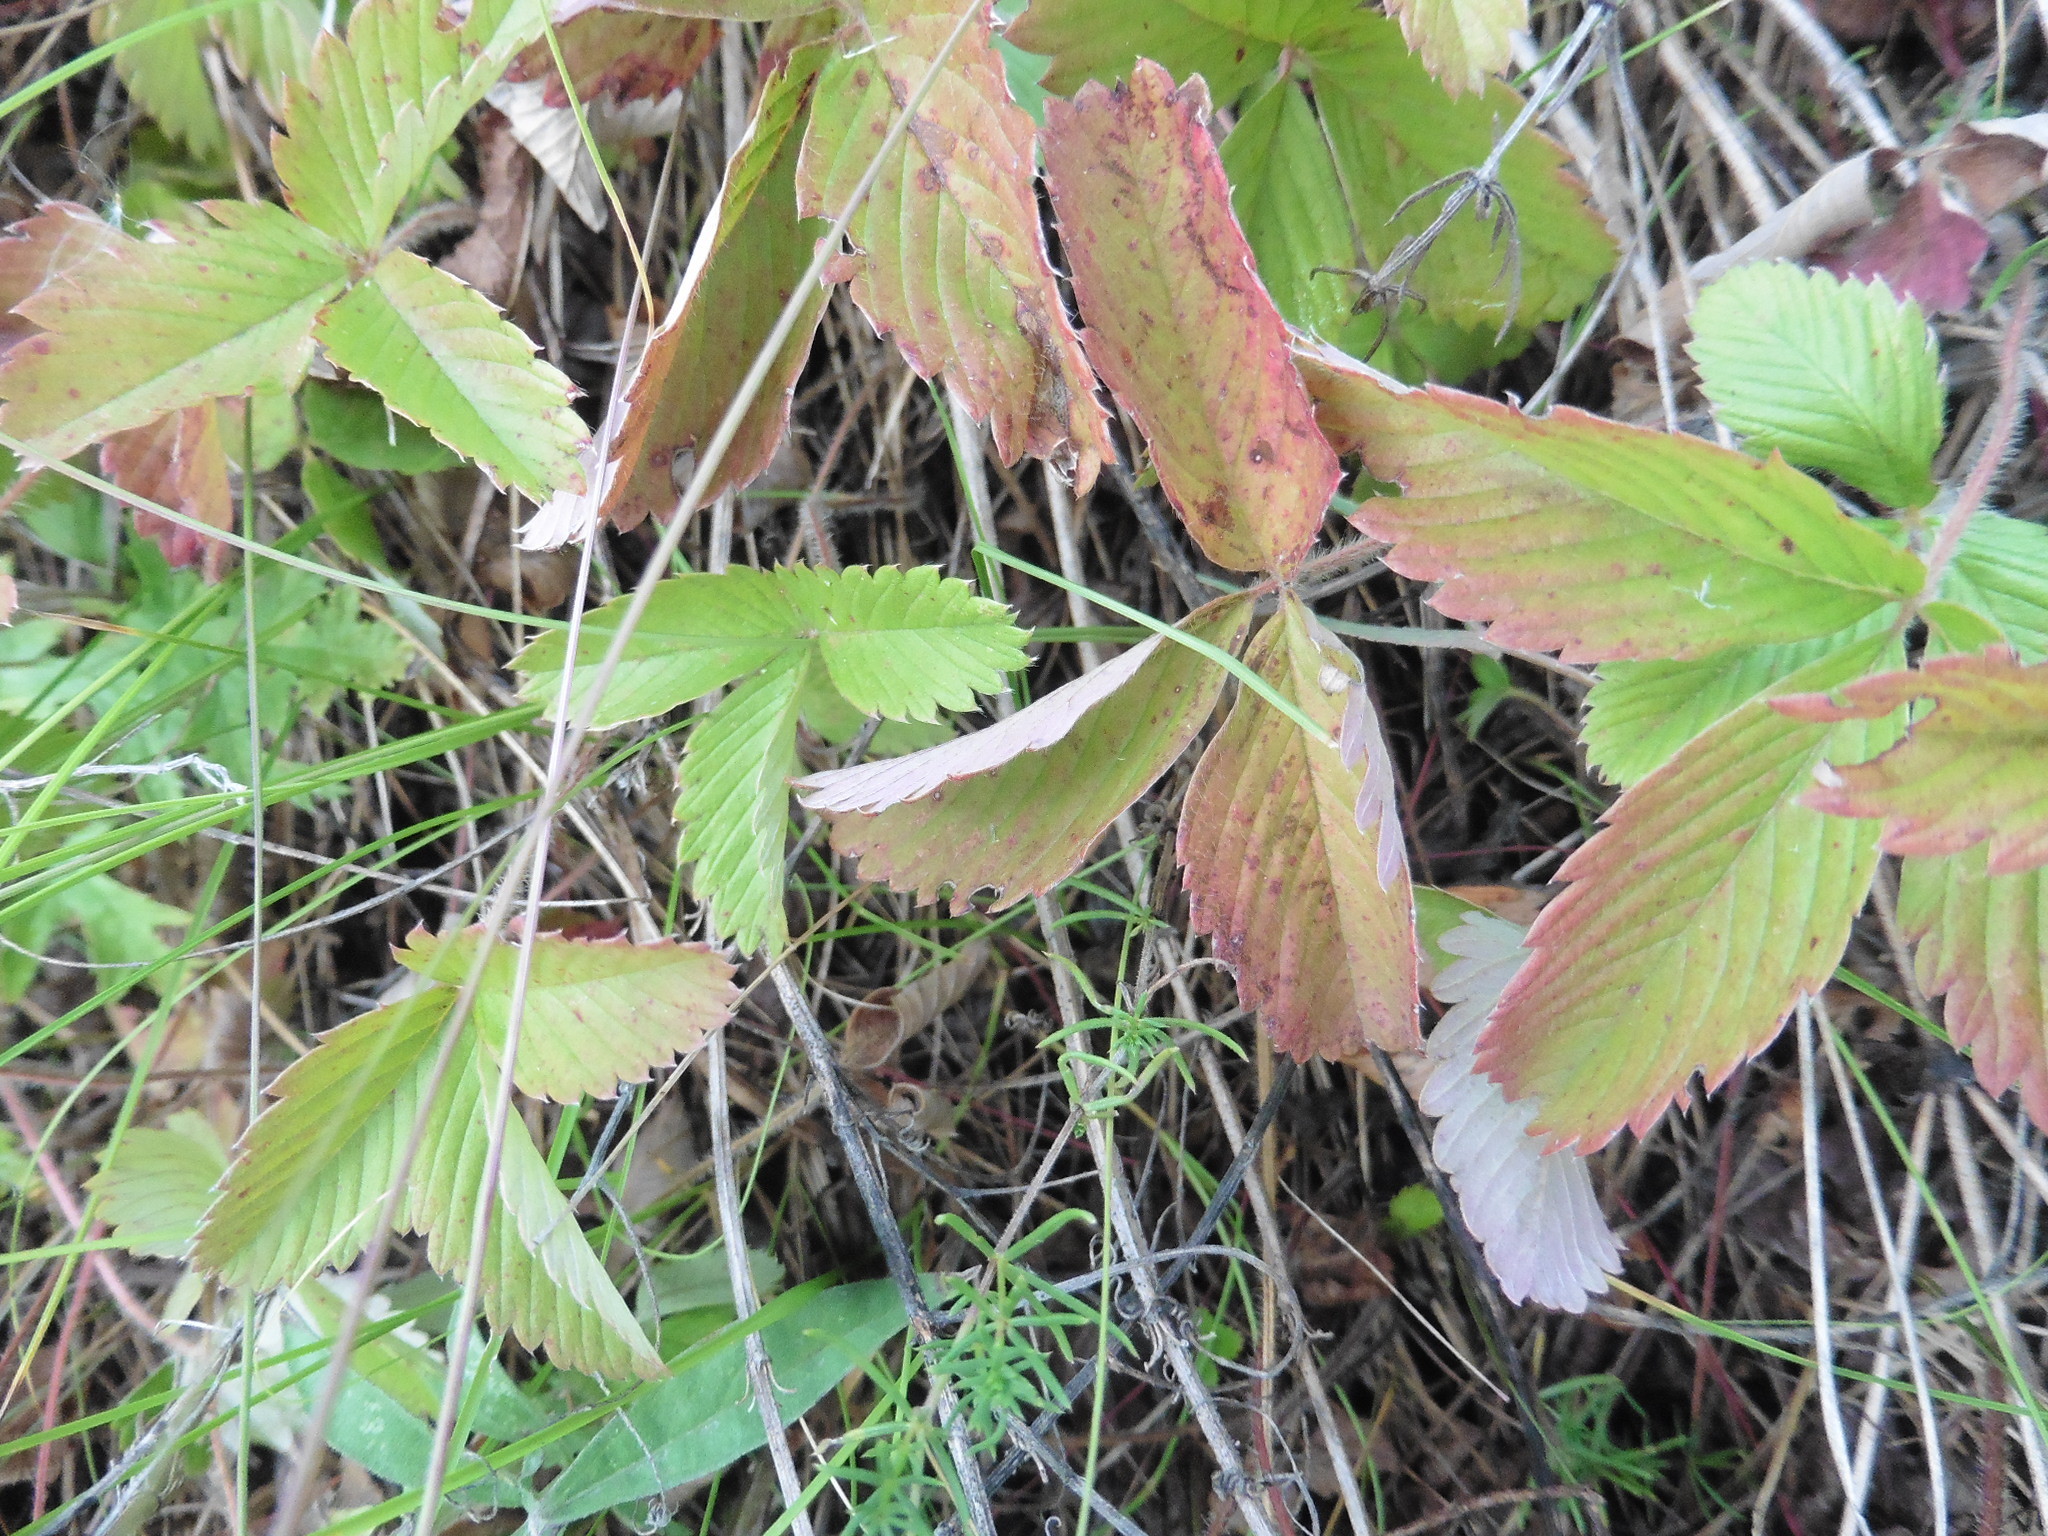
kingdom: Plantae
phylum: Tracheophyta
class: Magnoliopsida
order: Rosales
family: Rosaceae
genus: Fragaria
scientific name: Fragaria viridis
